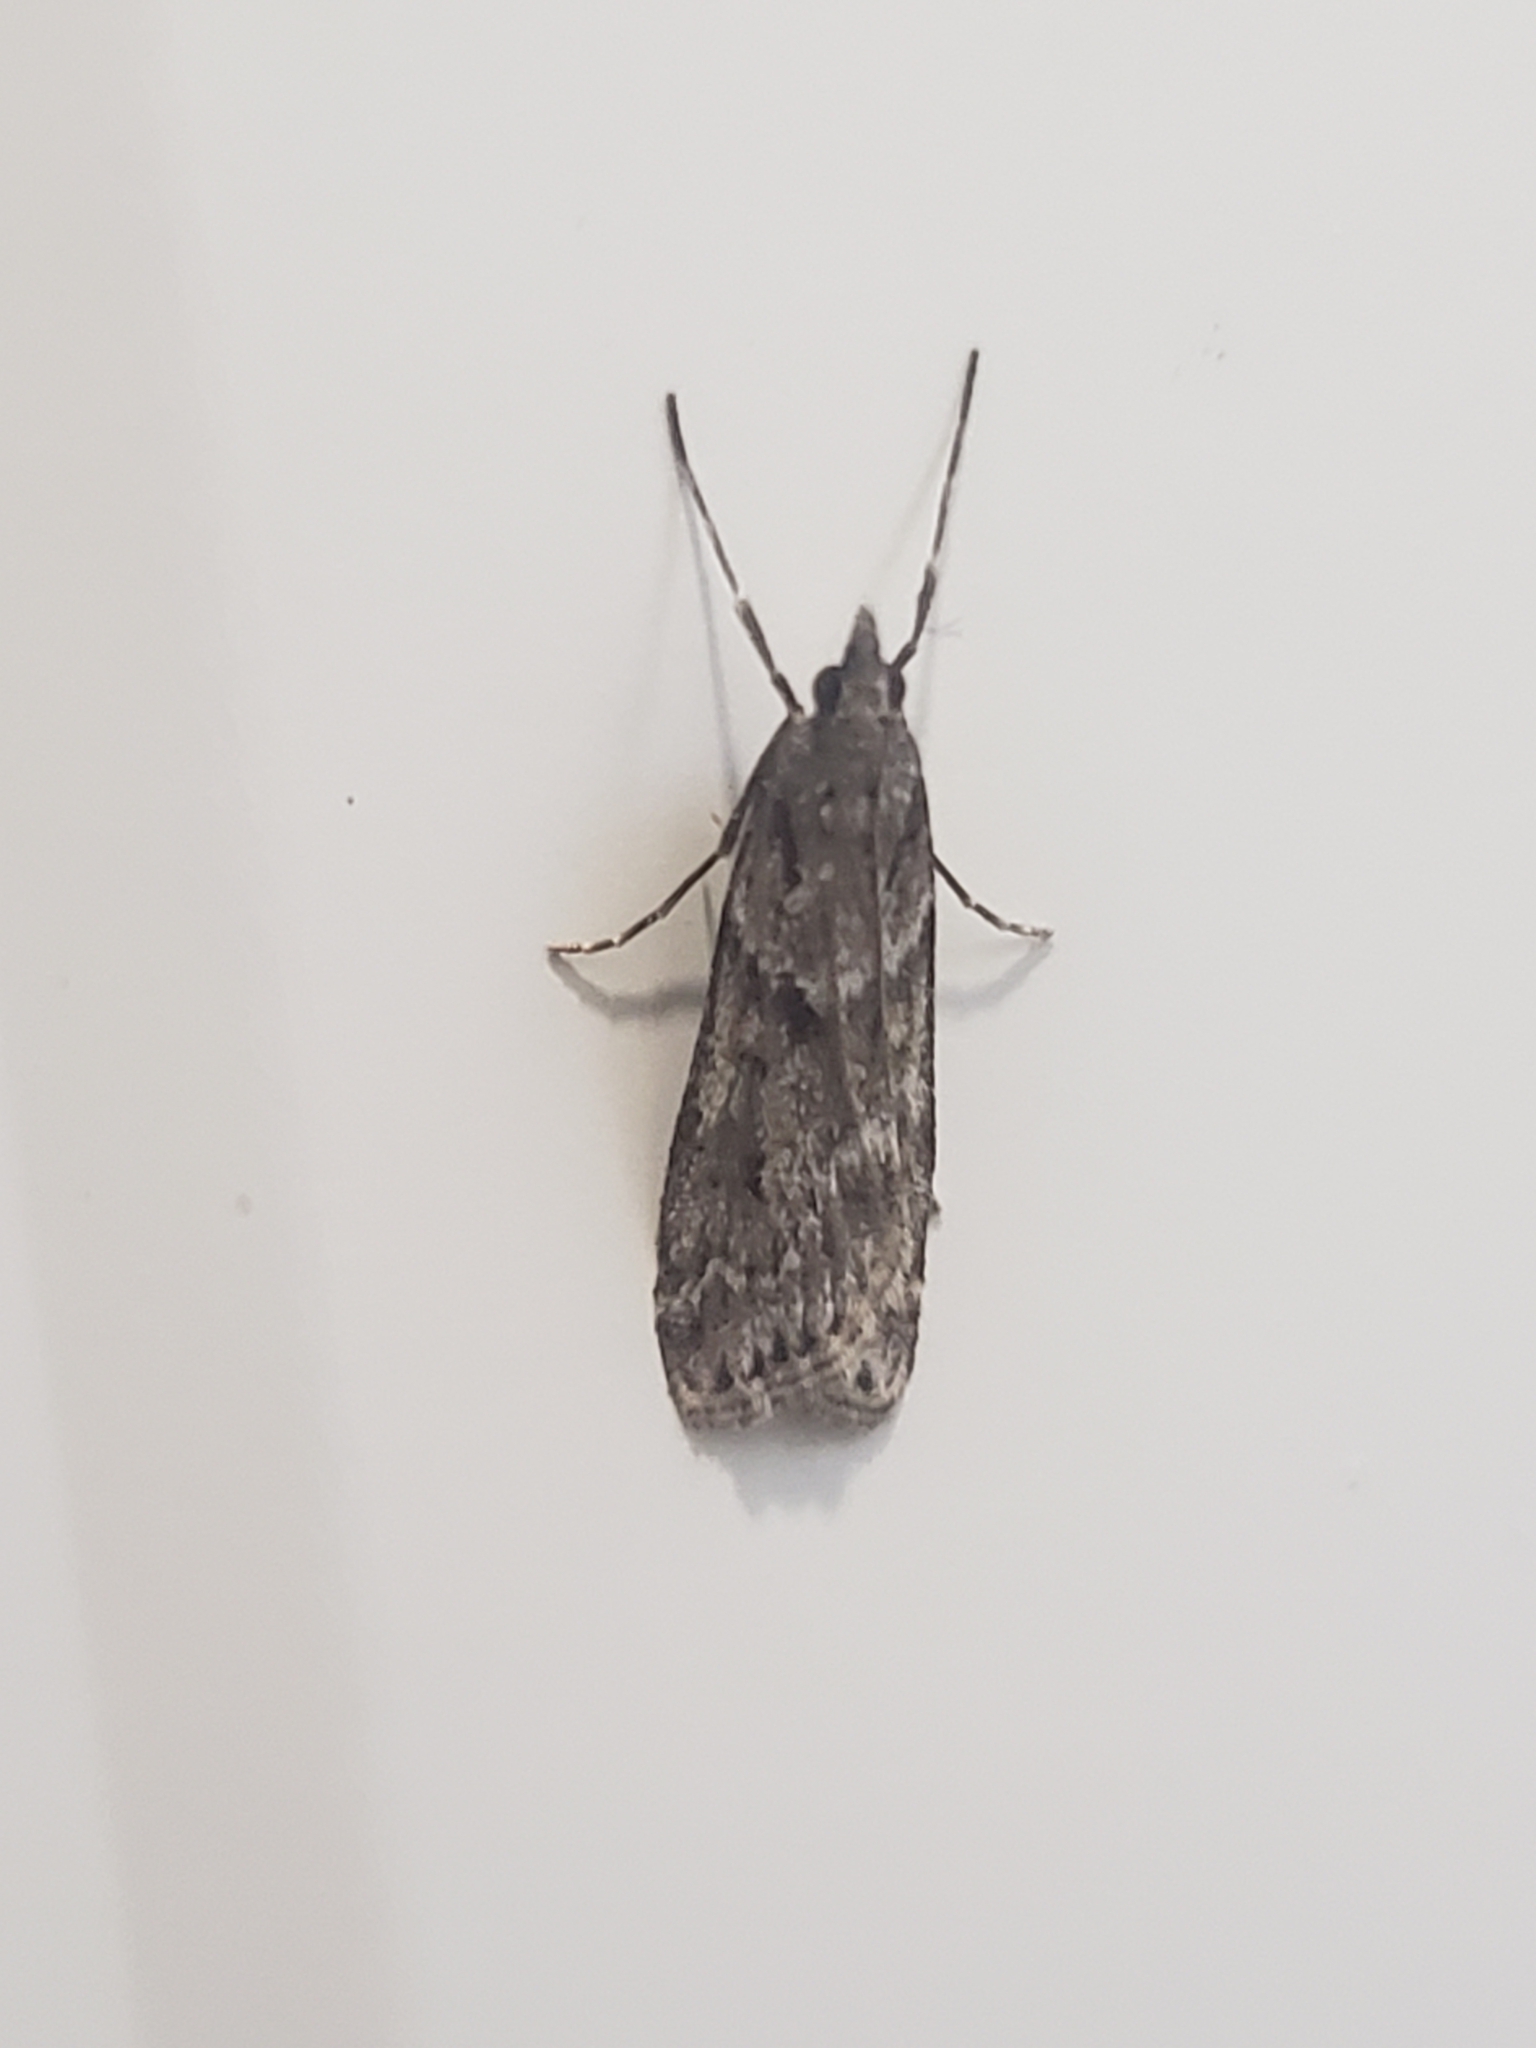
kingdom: Animalia
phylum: Arthropoda
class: Insecta
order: Lepidoptera
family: Crambidae
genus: Eudonia
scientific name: Eudonia angustea
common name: Narrow-winged grey
